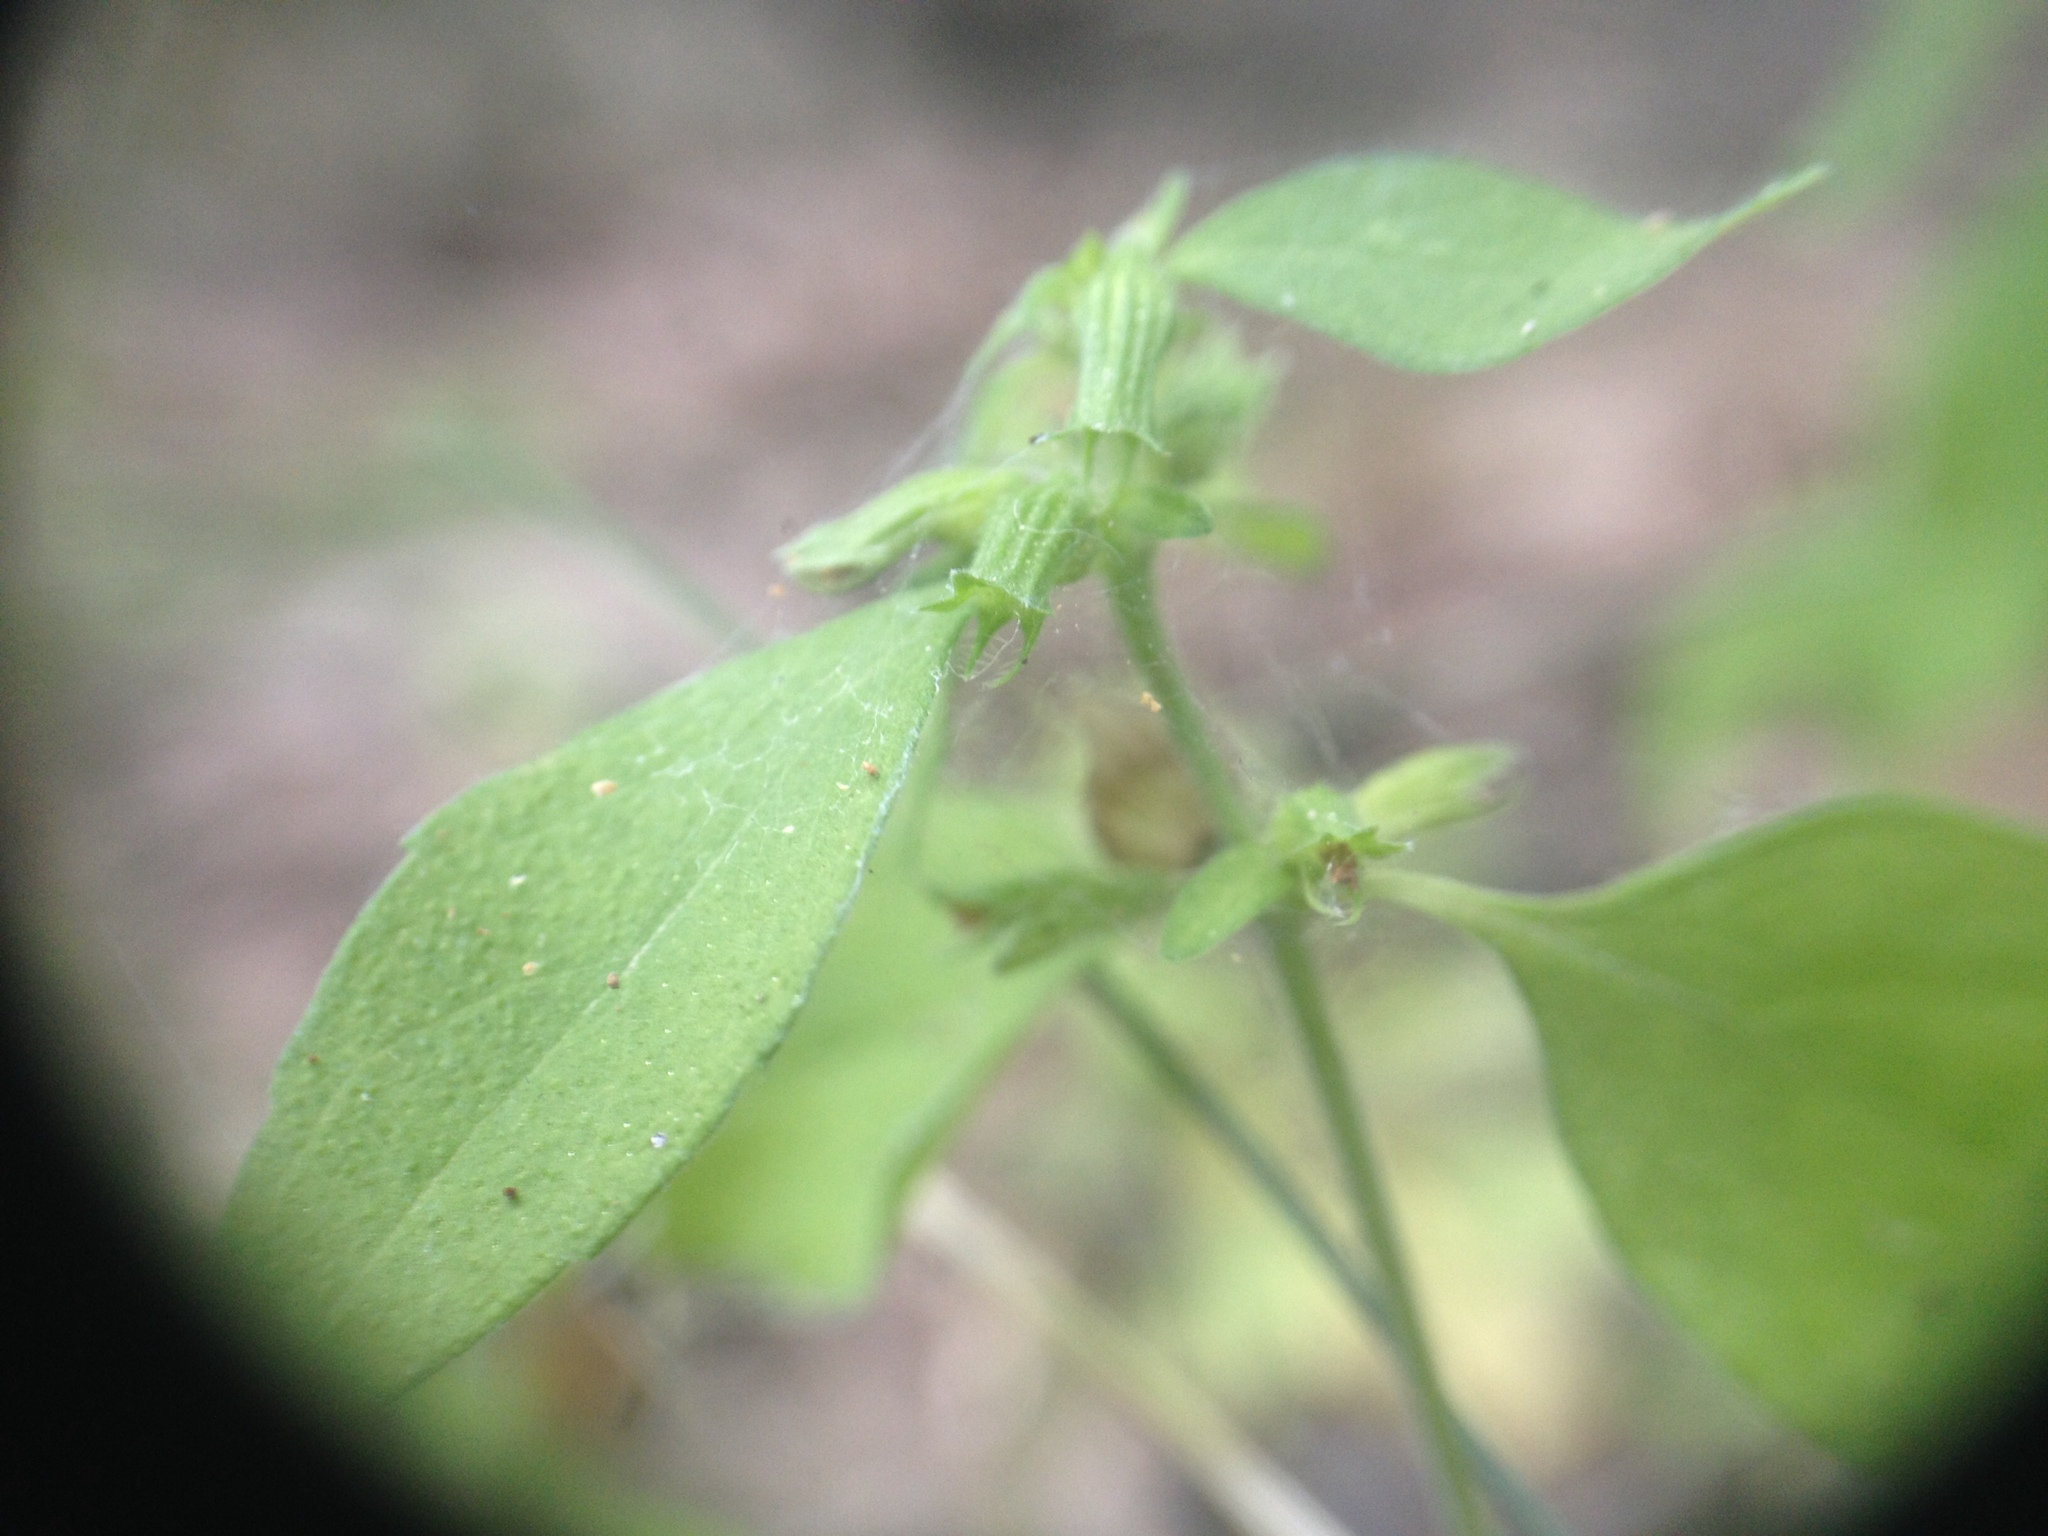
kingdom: Plantae
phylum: Tracheophyta
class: Magnoliopsida
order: Lamiales
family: Lamiaceae
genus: Hedeoma
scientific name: Hedeoma pulegioides
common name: American false pennyroyal
